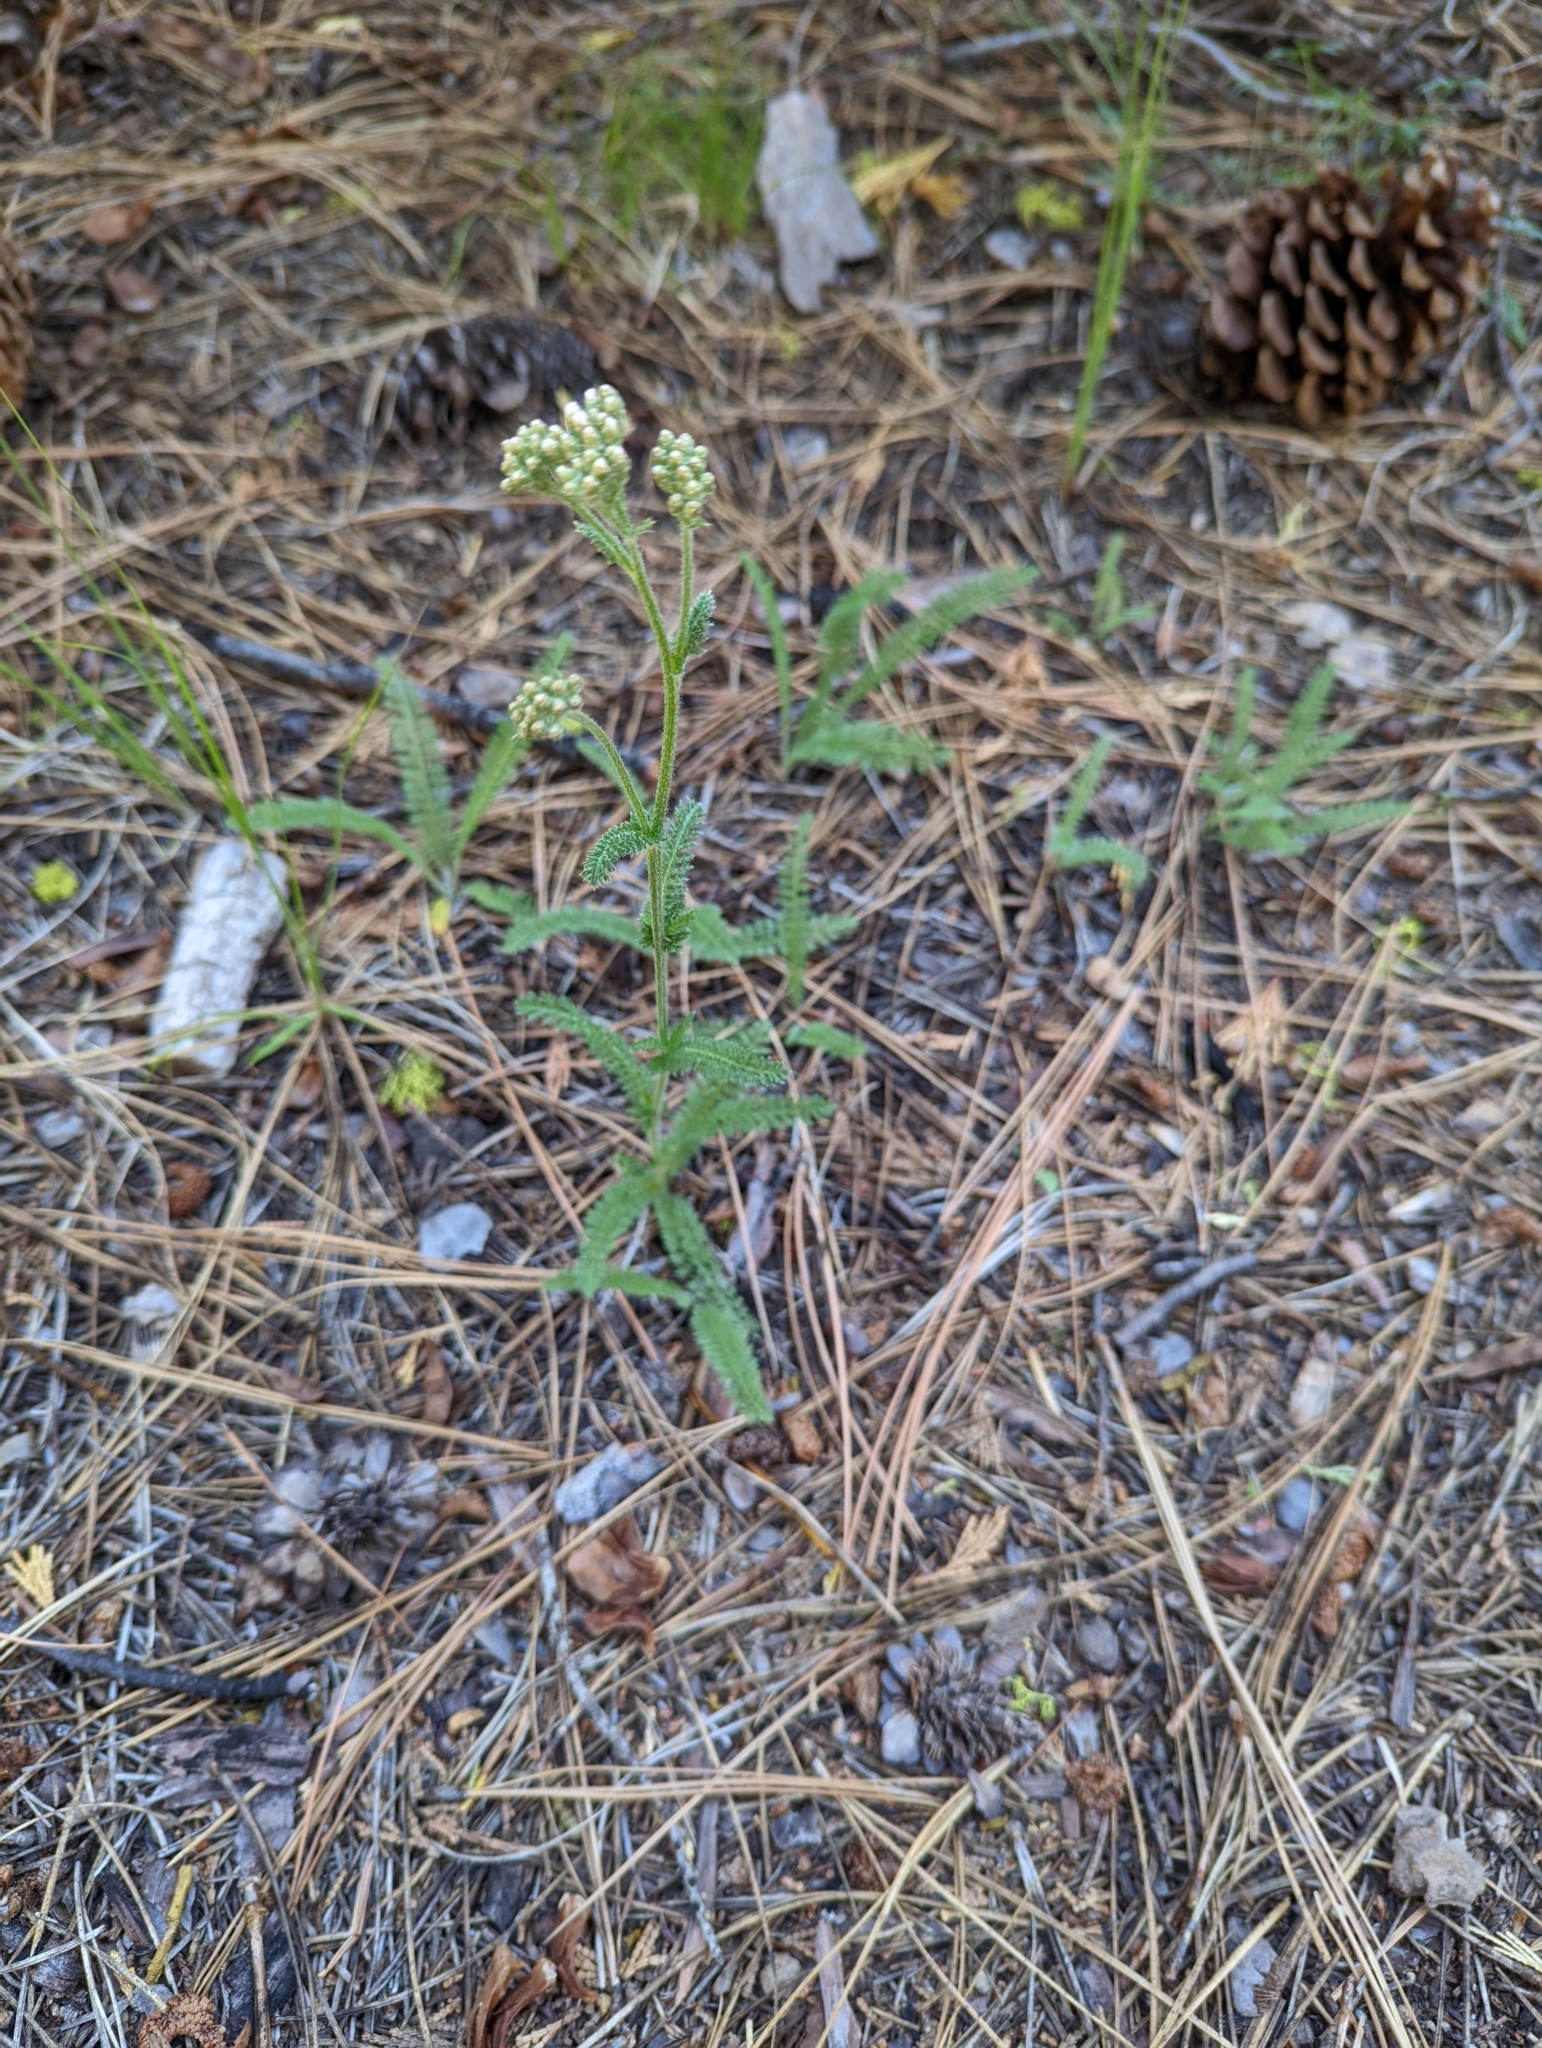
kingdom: Plantae
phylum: Tracheophyta
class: Magnoliopsida
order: Asterales
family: Asteraceae
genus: Achillea
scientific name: Achillea millefolium
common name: Yarrow
